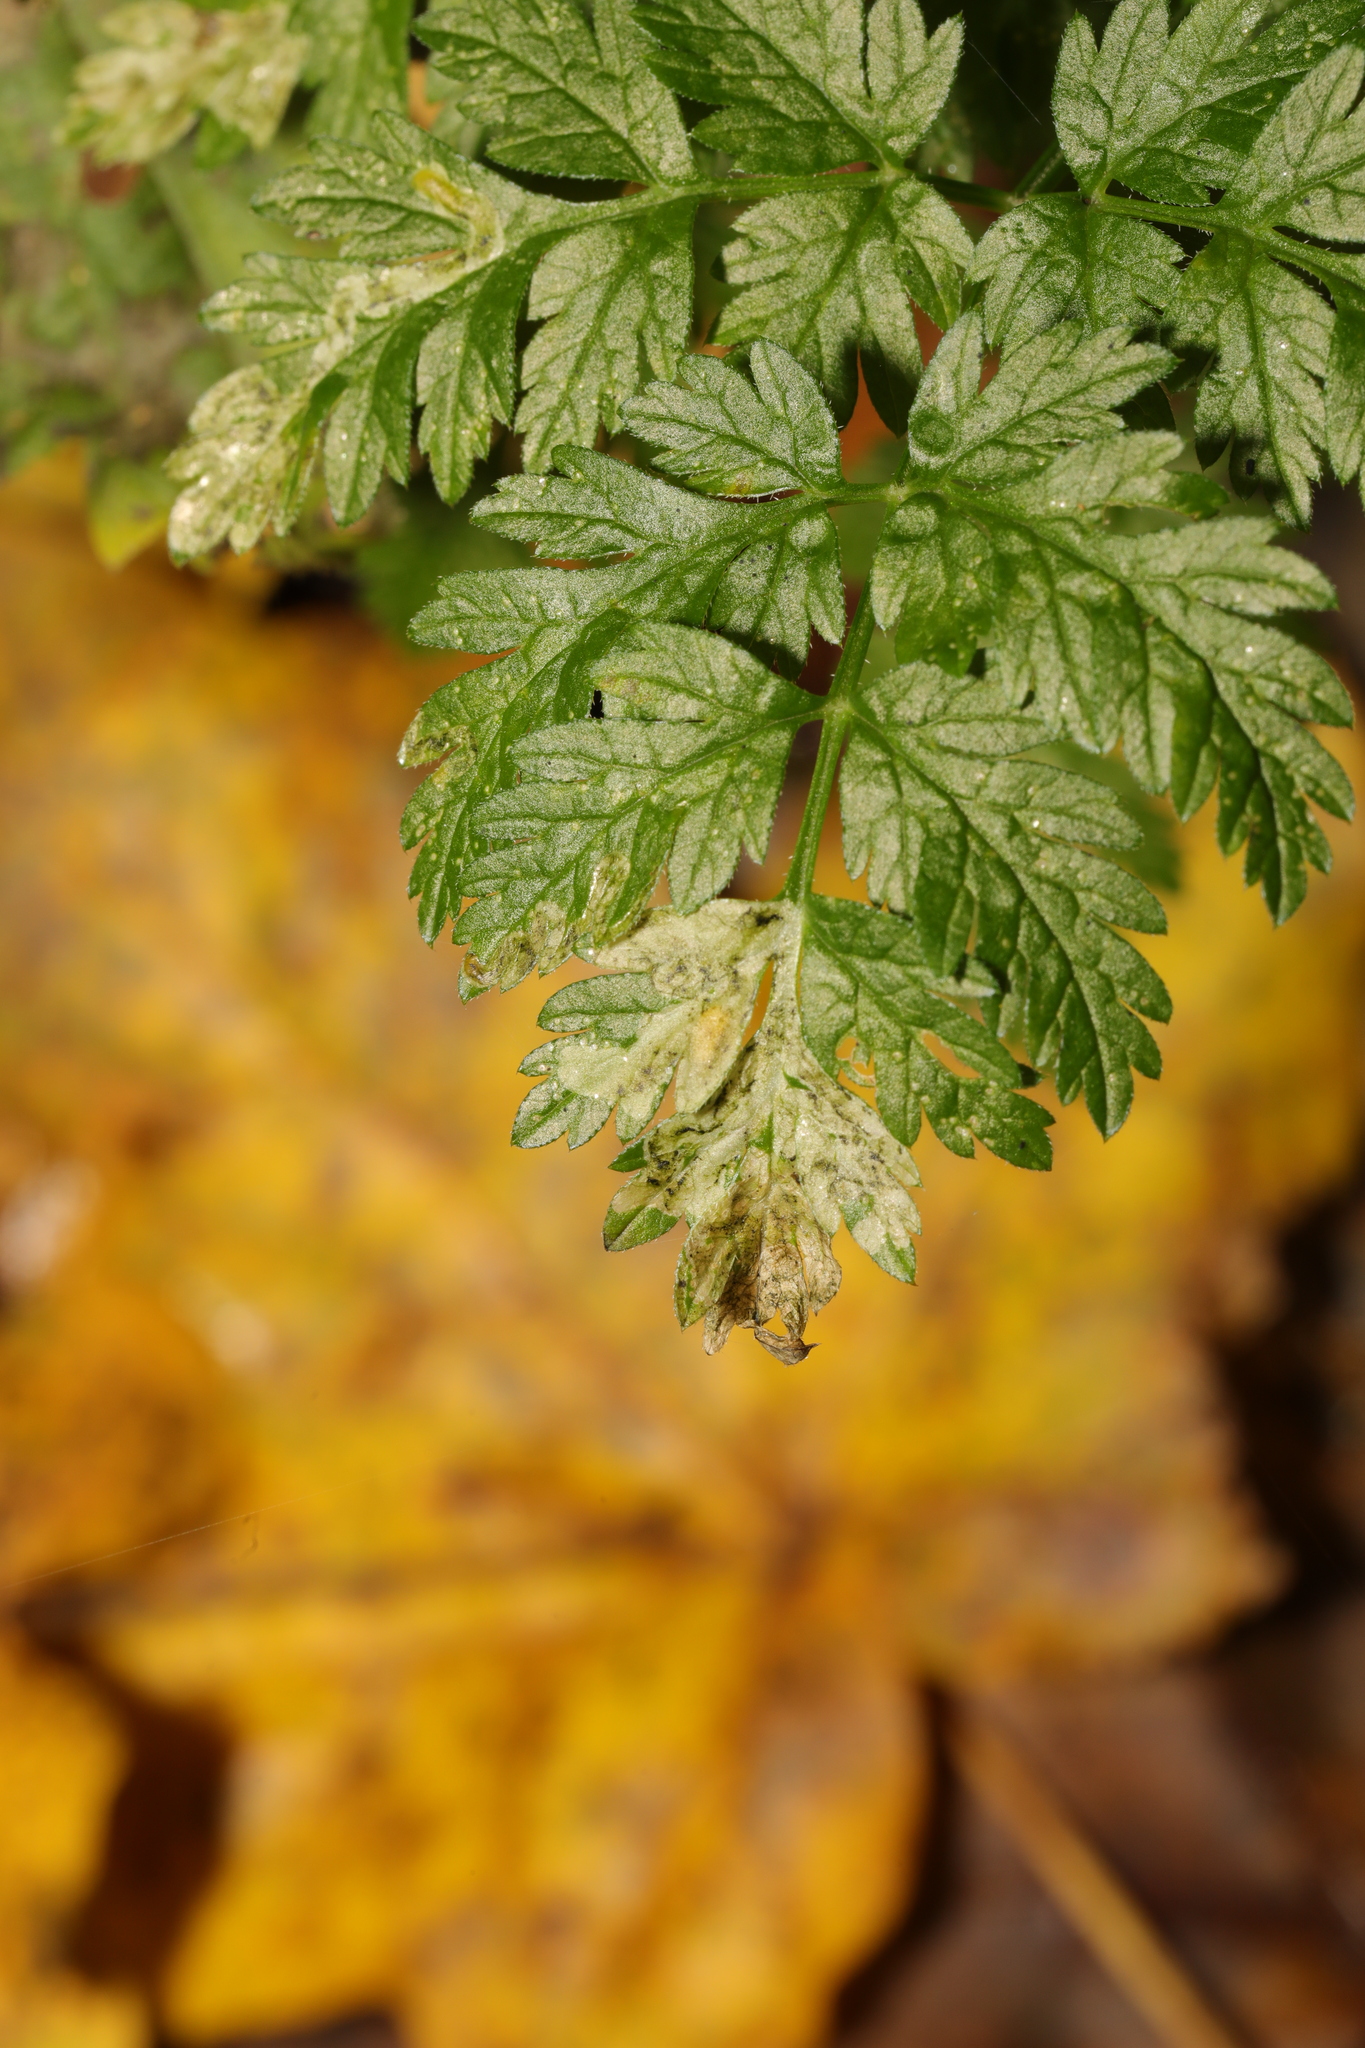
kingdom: Animalia
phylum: Arthropoda
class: Insecta
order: Diptera
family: Agromyzidae
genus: Phytomyza
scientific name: Phytomyza chaerophylli
